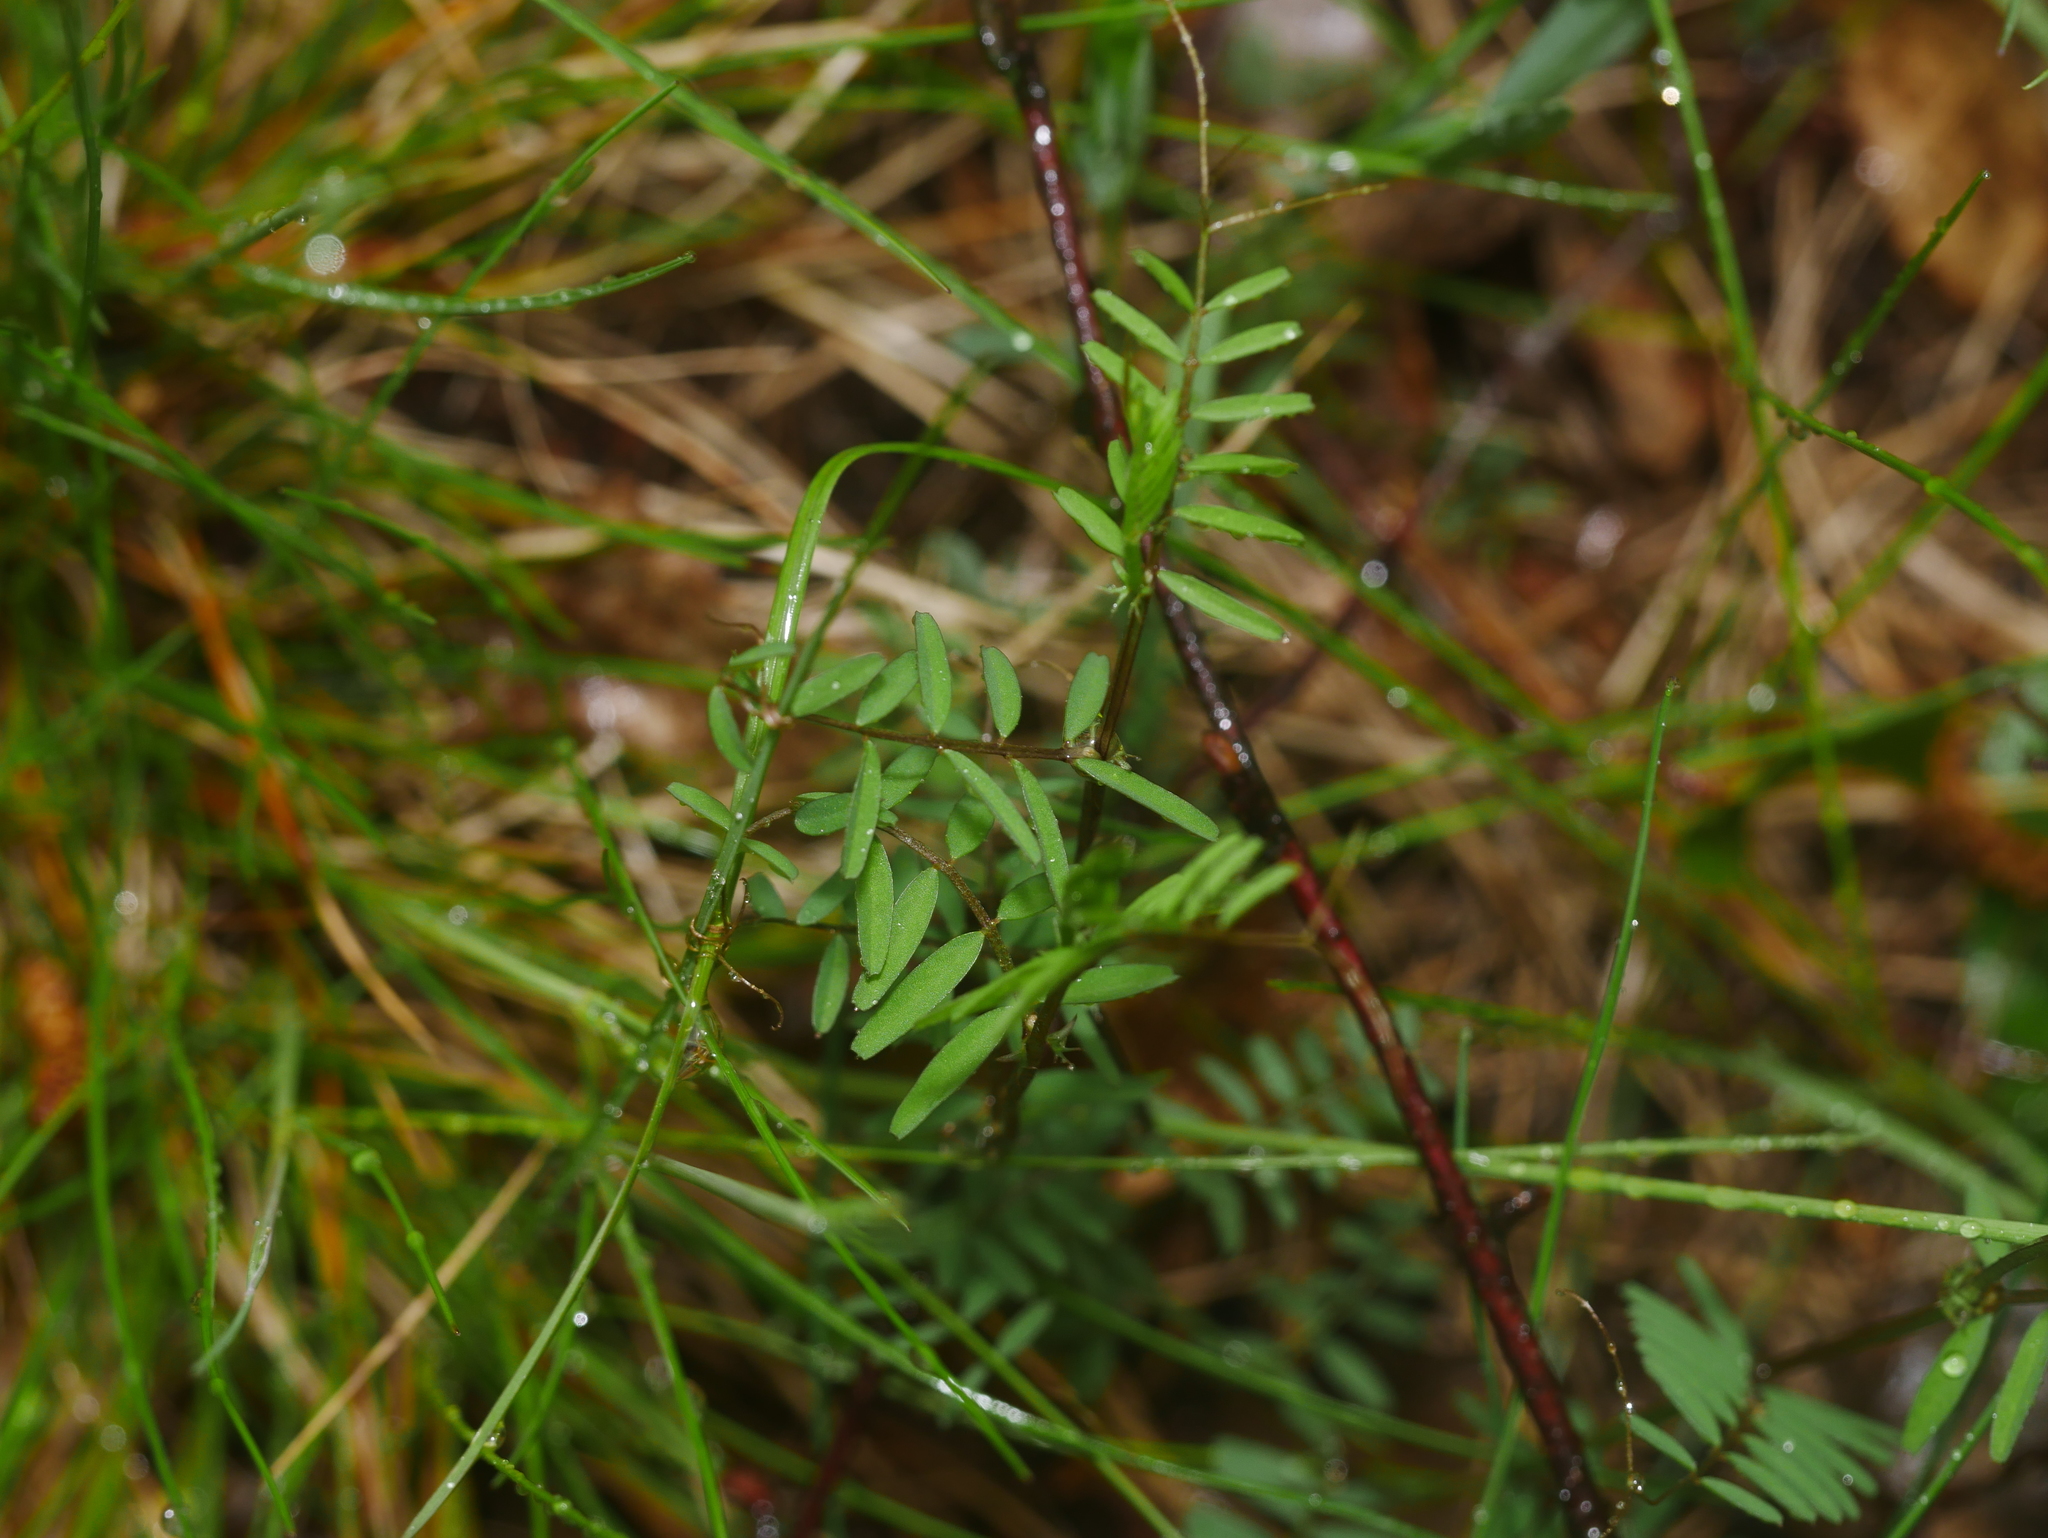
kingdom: Plantae
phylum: Tracheophyta
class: Magnoliopsida
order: Fabales
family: Fabaceae
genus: Vicia
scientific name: Vicia hirsuta
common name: Tiny vetch
